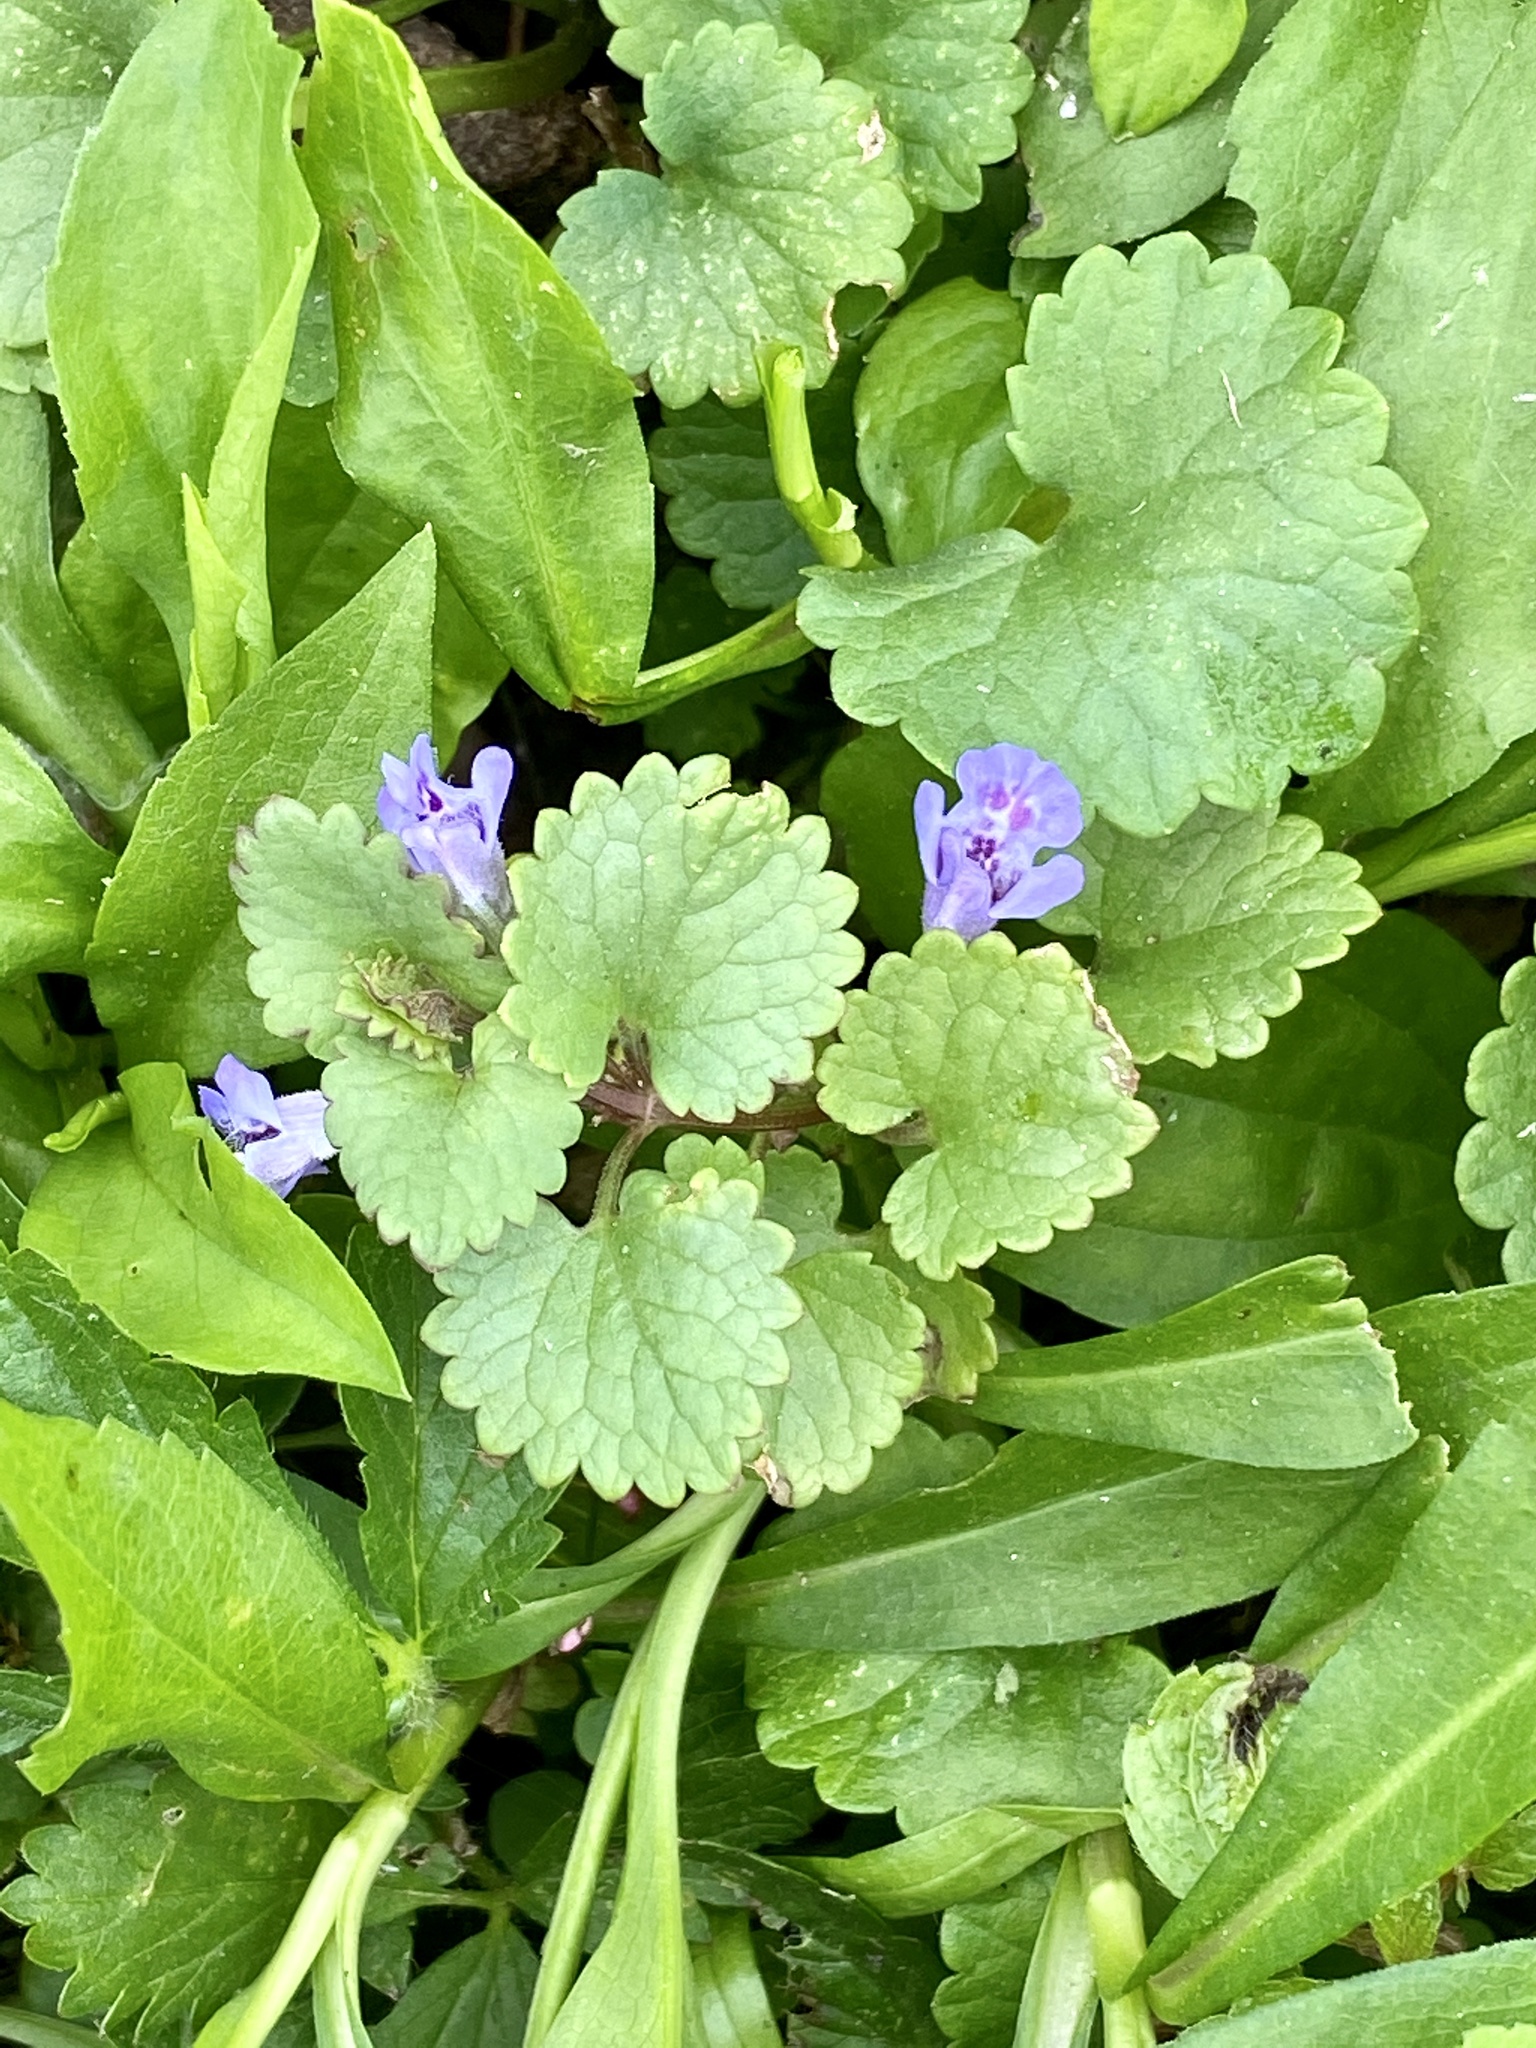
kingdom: Plantae
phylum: Tracheophyta
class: Magnoliopsida
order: Lamiales
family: Lamiaceae
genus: Glechoma
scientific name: Glechoma hederacea
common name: Ground ivy
